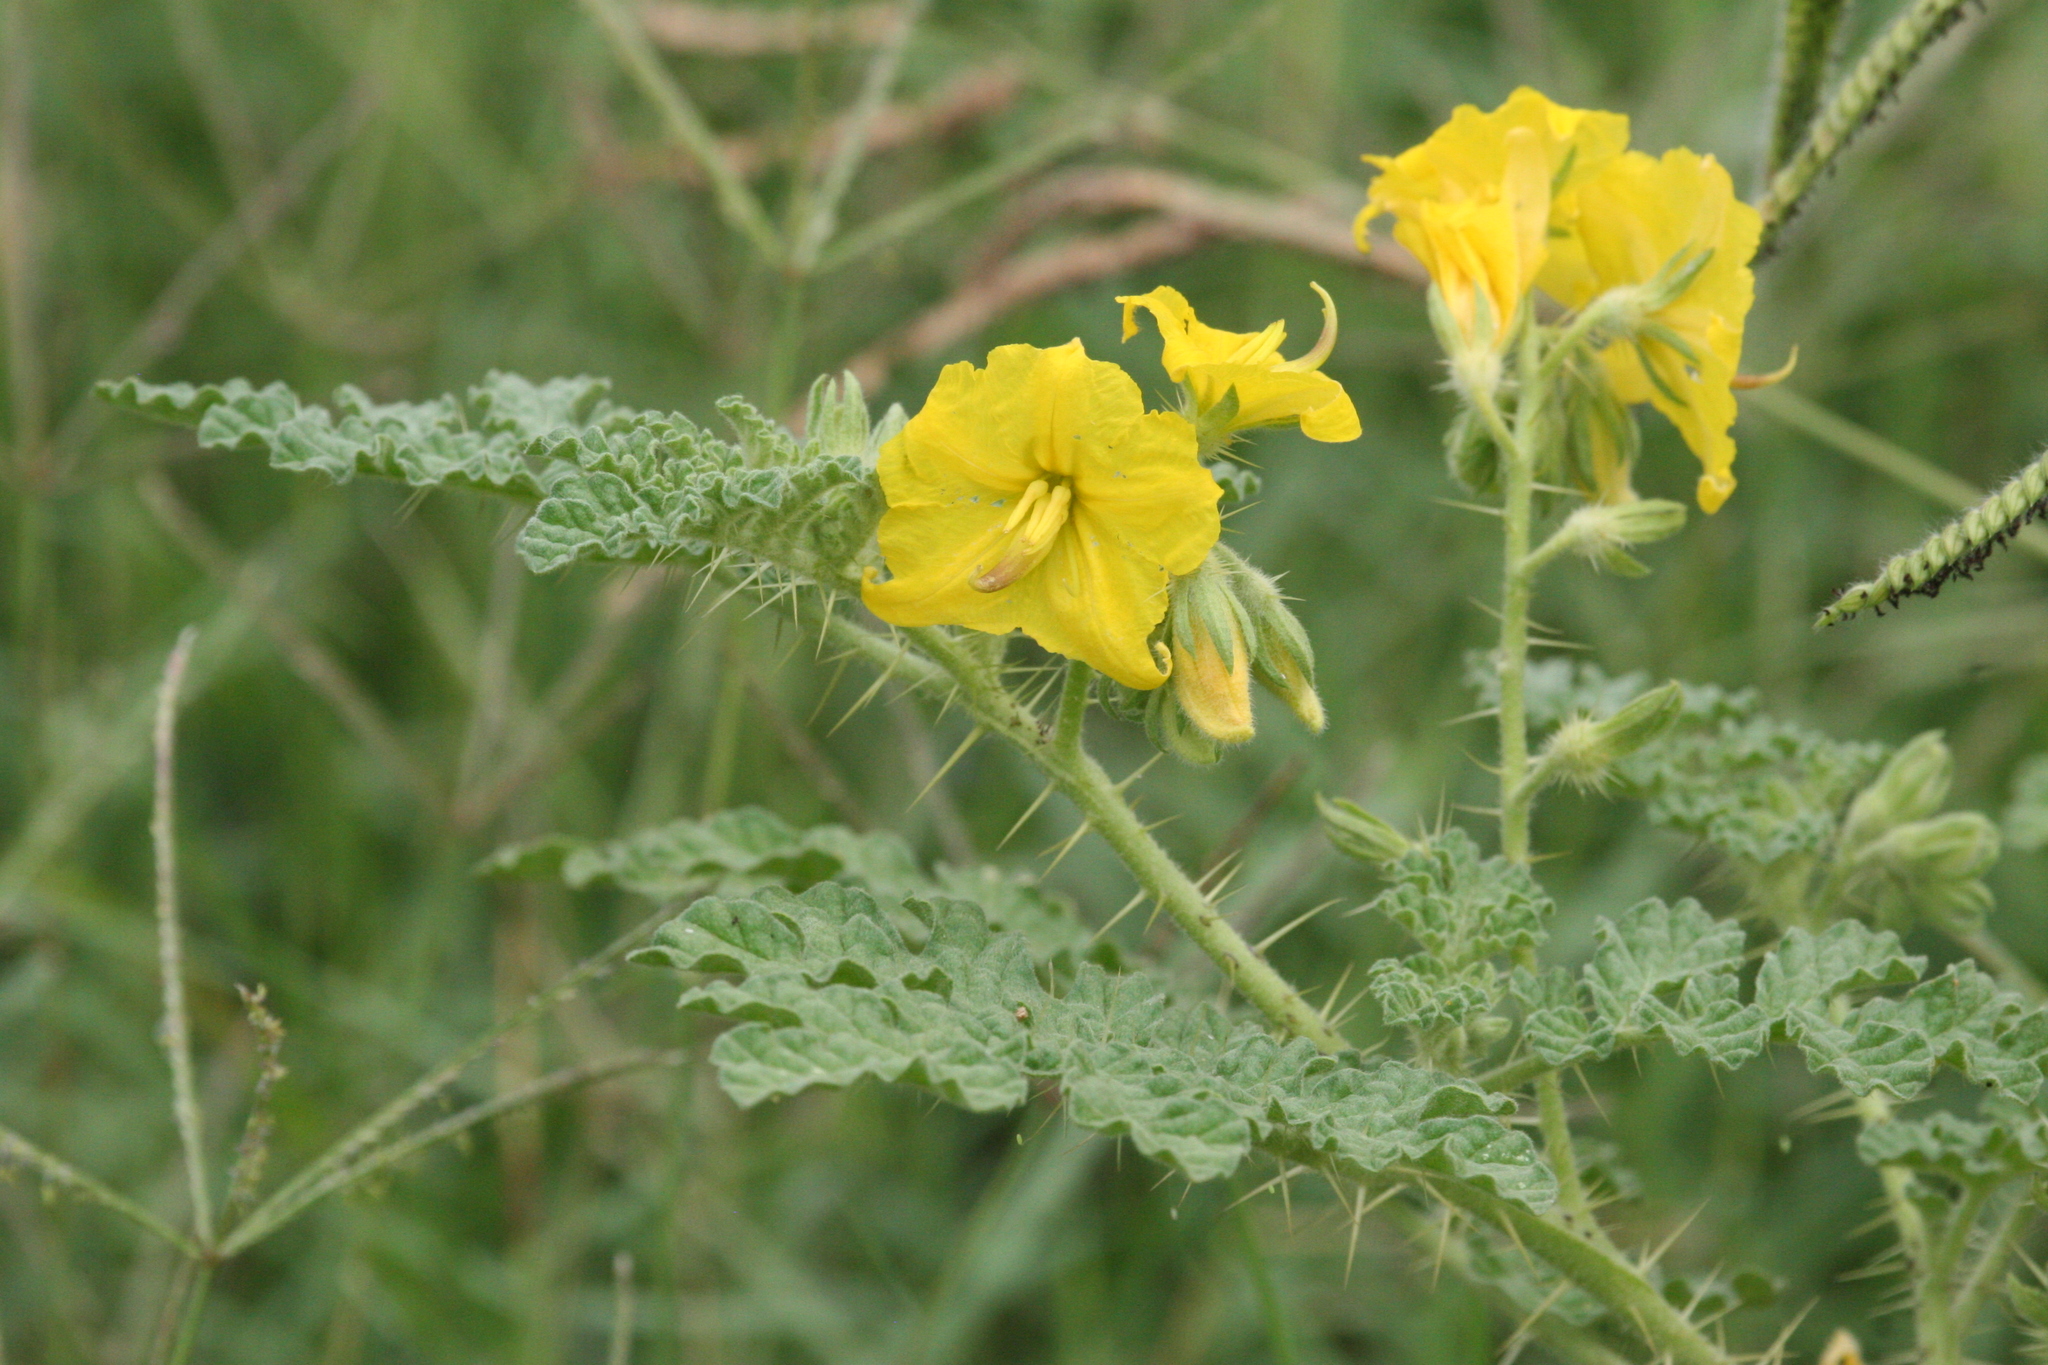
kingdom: Plantae
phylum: Tracheophyta
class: Magnoliopsida
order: Solanales
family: Solanaceae
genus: Solanum
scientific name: Solanum angustifolium
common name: Buffalobur nightshade
